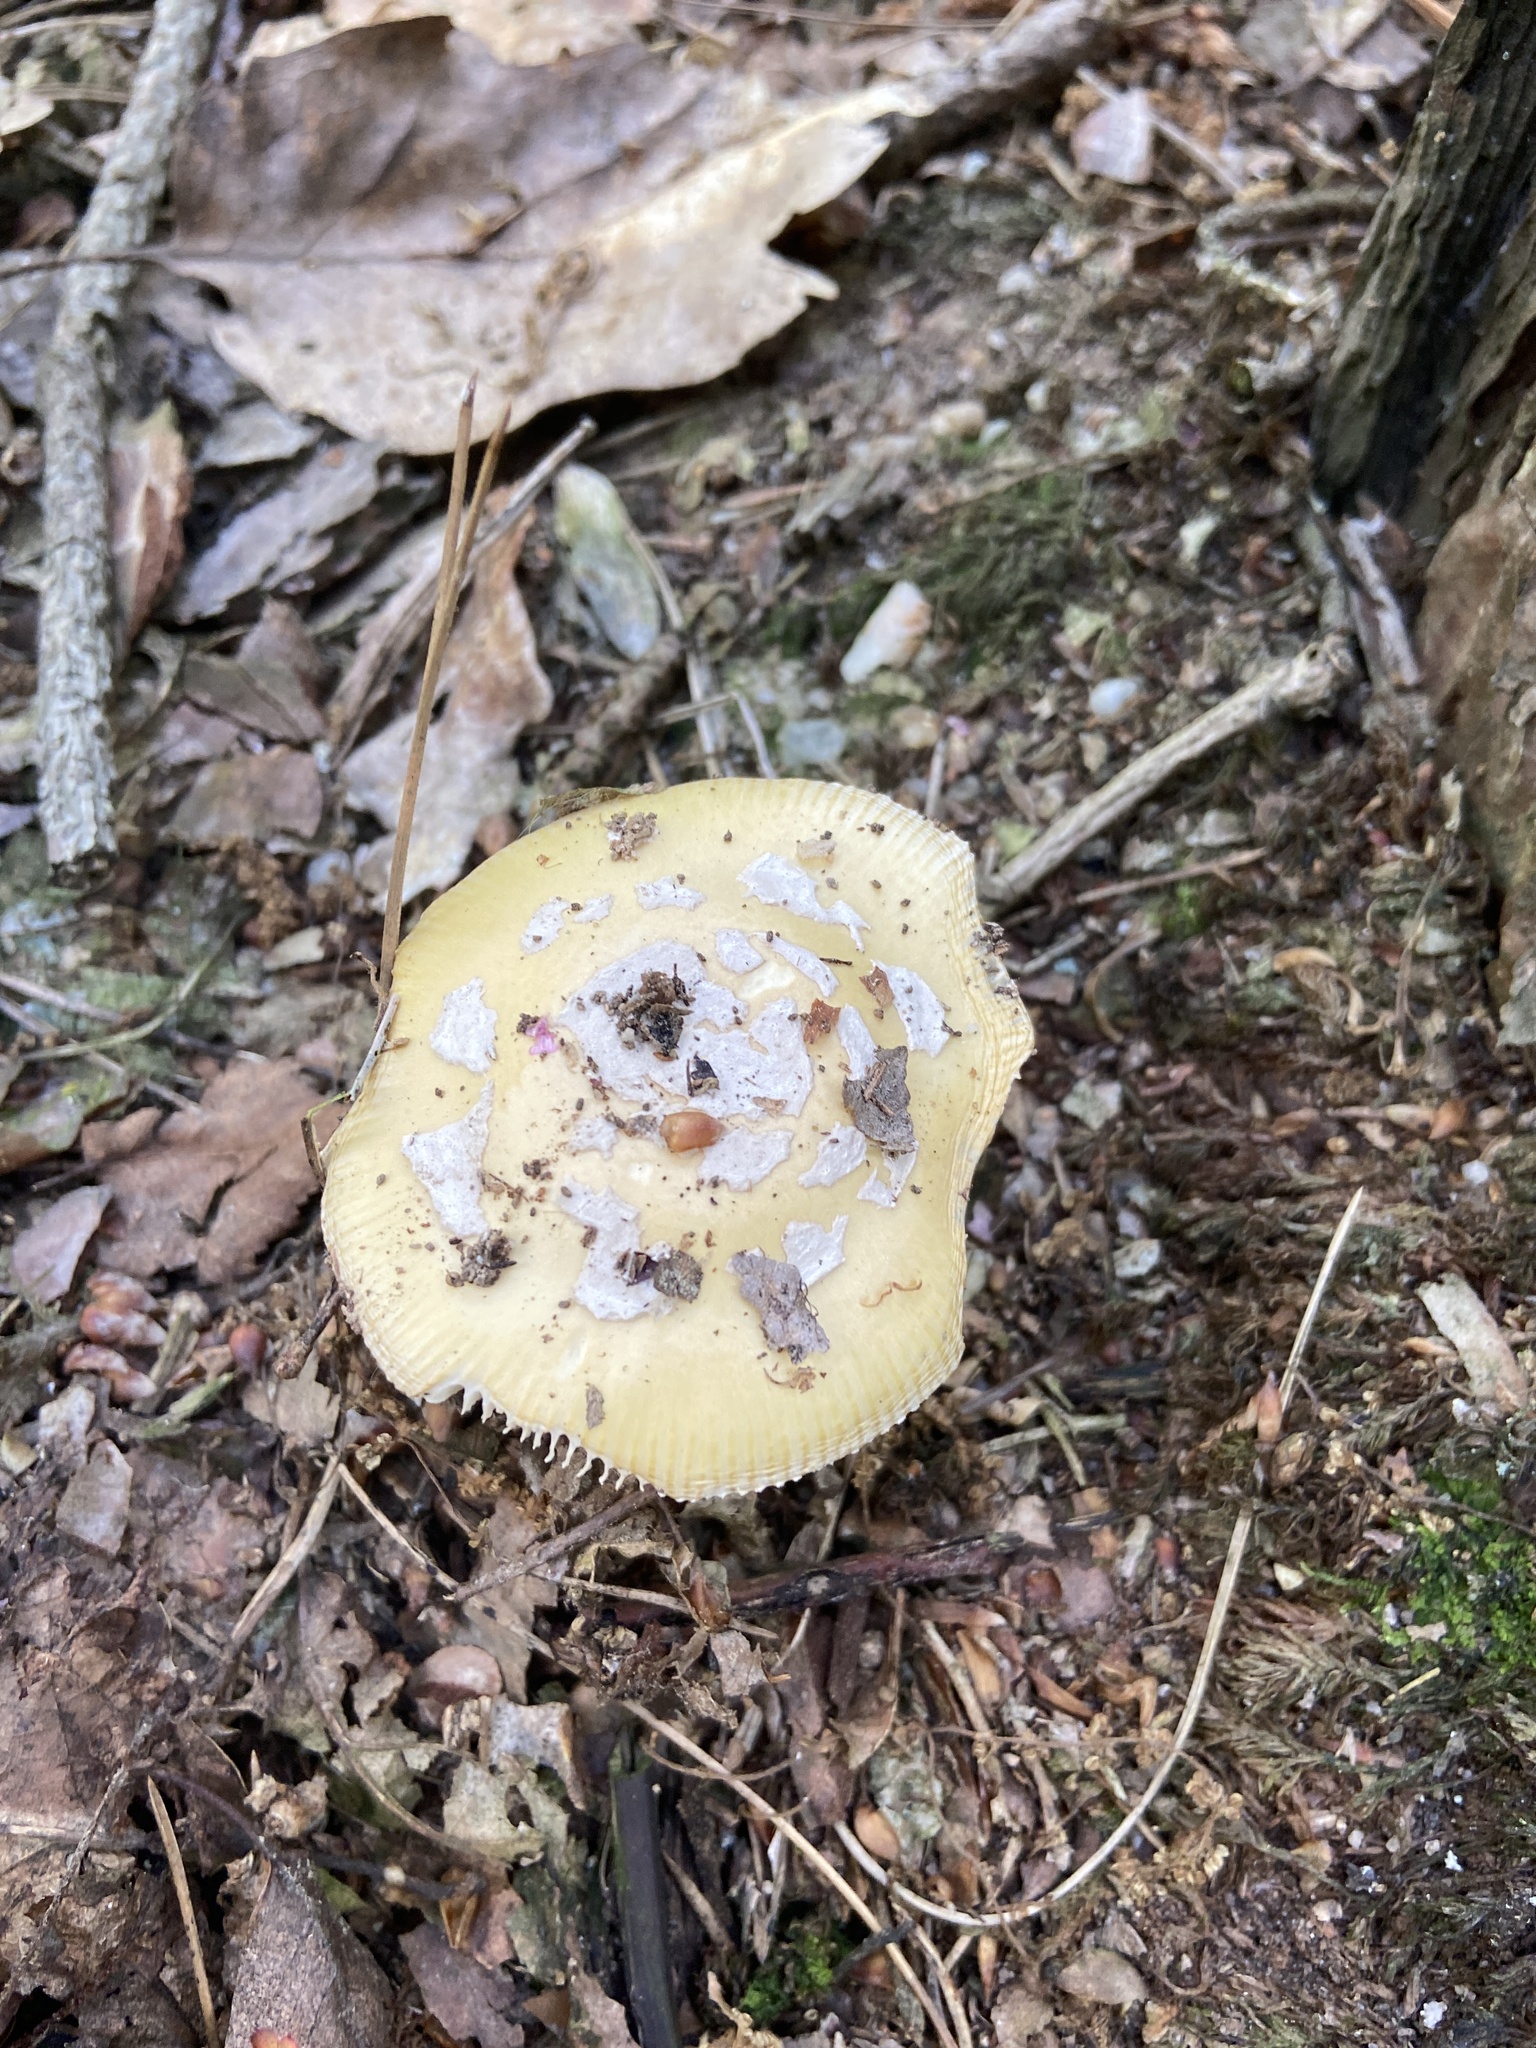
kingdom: Fungi
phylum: Basidiomycota
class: Agaricomycetes
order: Agaricales
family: Amanitaceae
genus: Amanita
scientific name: Amanita gemmata
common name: Jewelled amanita
